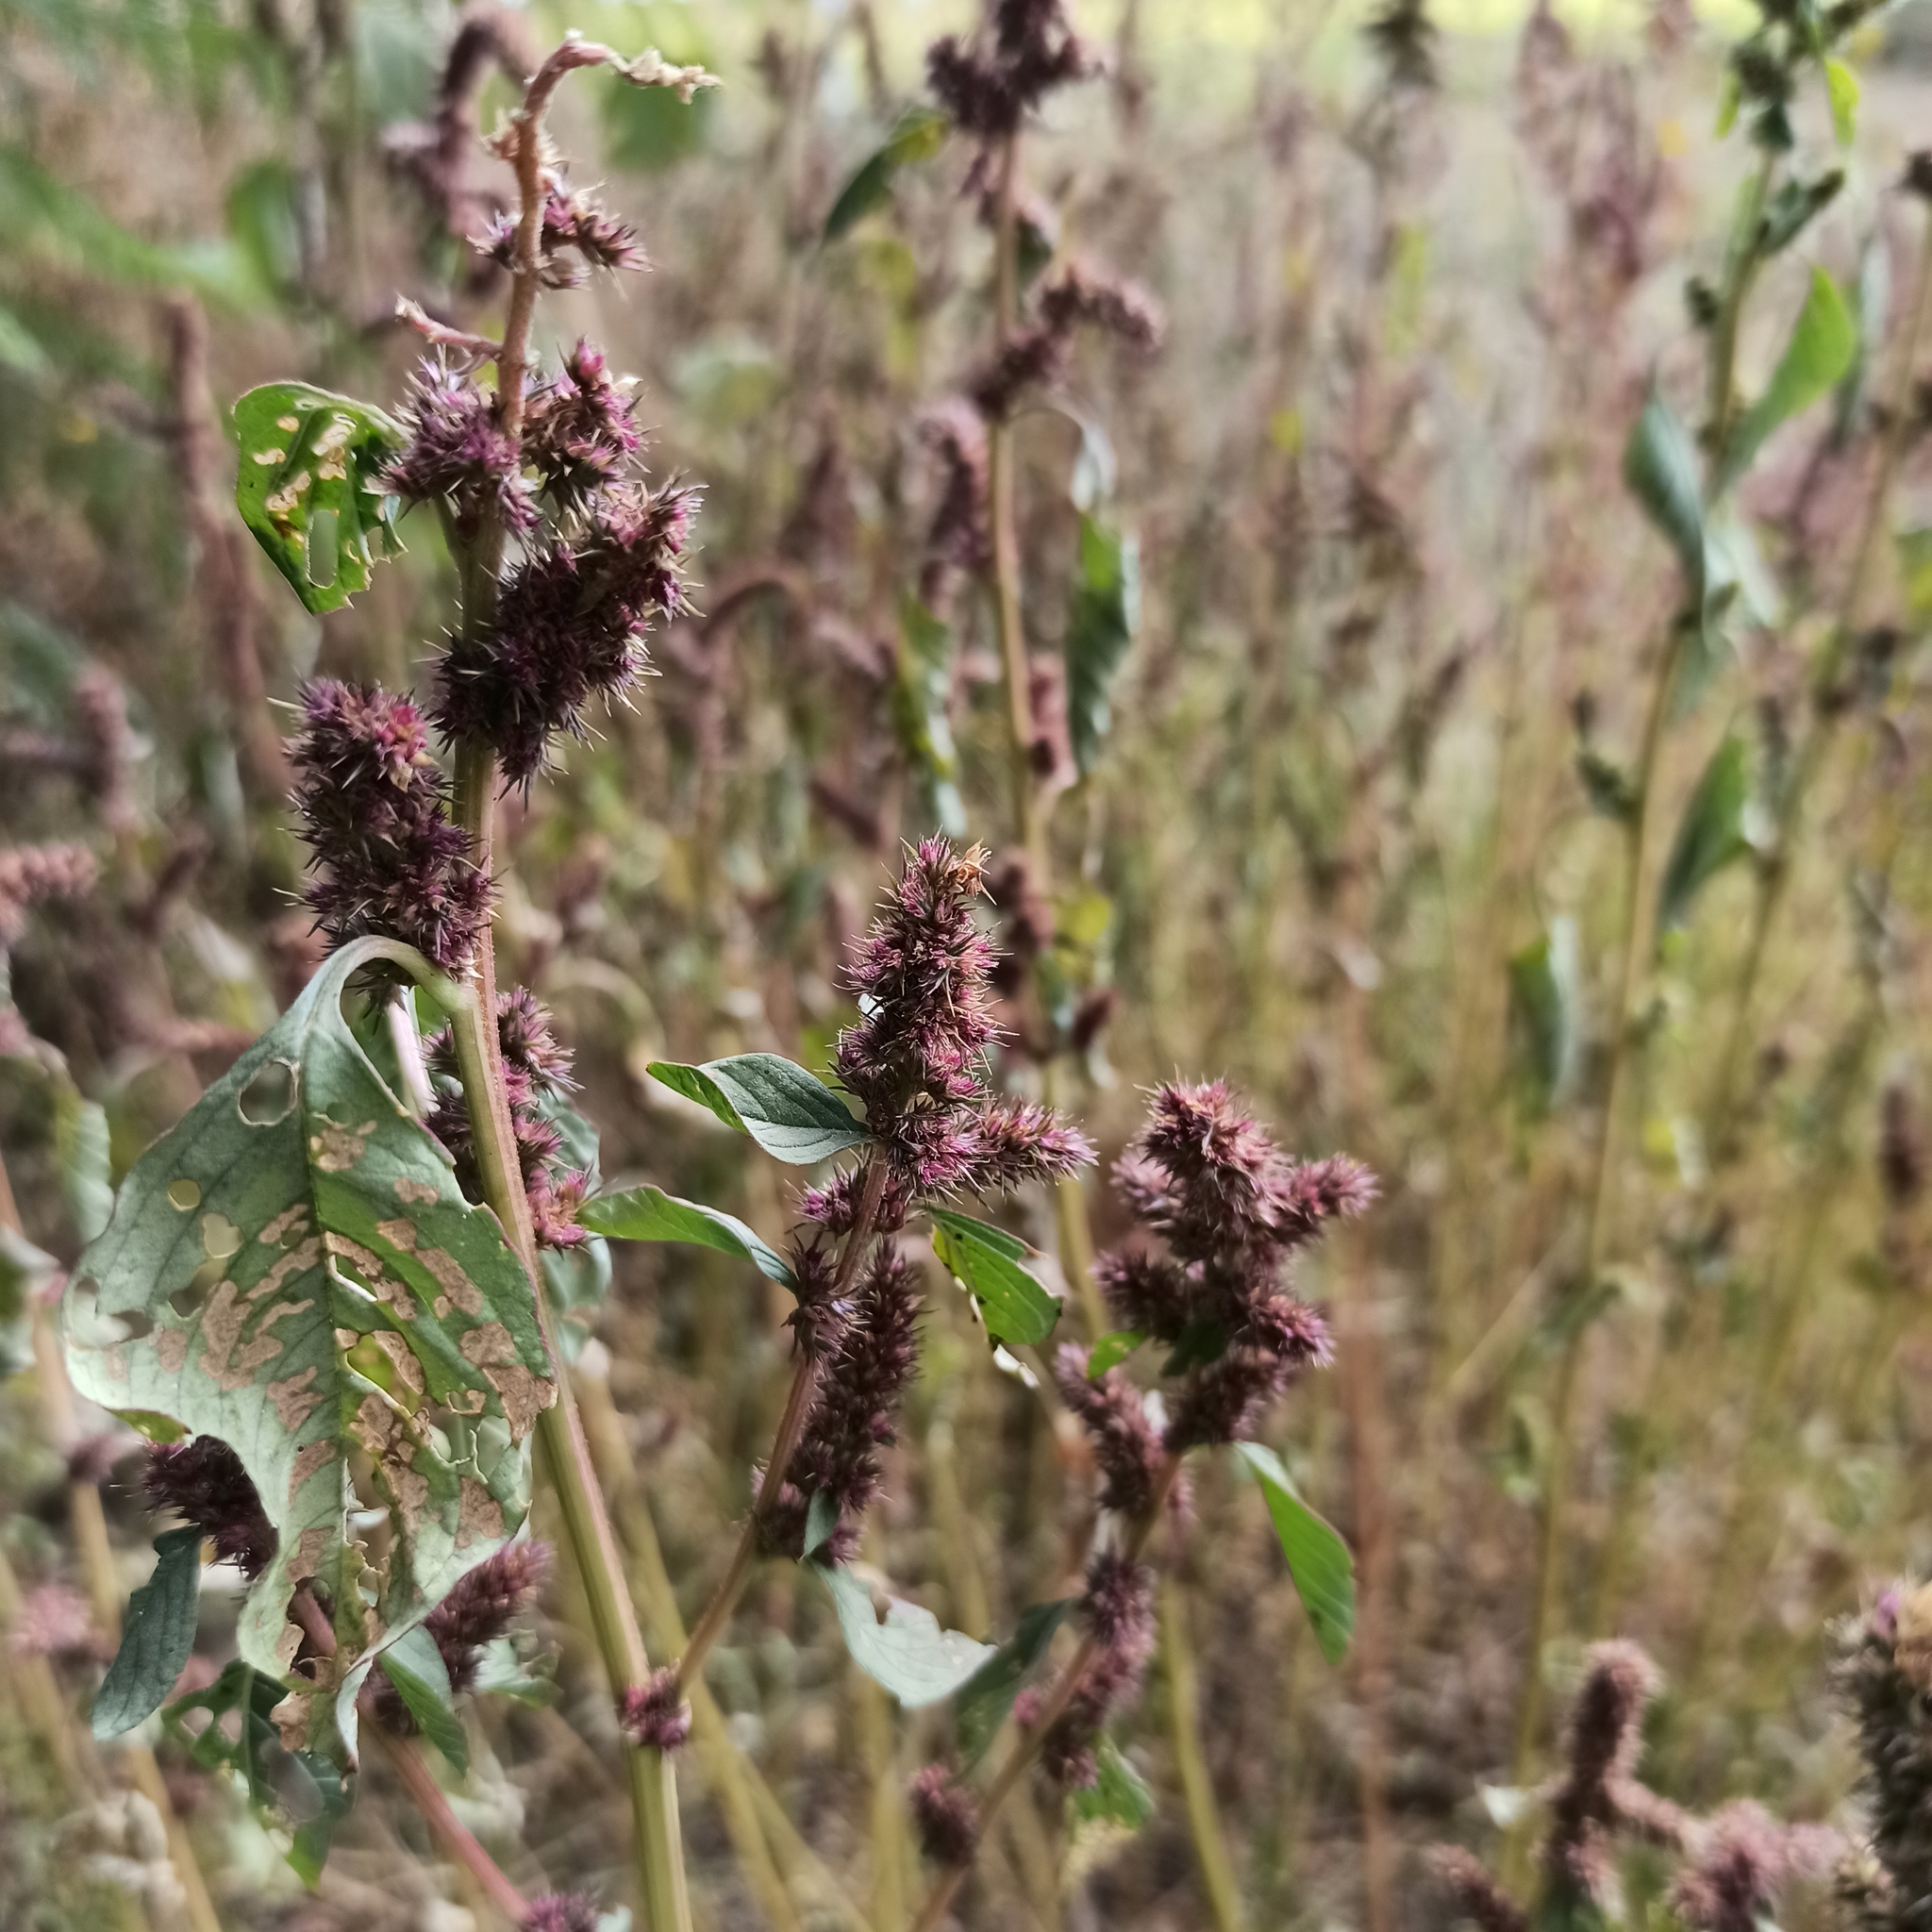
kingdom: Plantae
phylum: Tracheophyta
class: Magnoliopsida
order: Caryophyllales
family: Amaranthaceae
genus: Amaranthus
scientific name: Amaranthus hybridus
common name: Green amaranth
